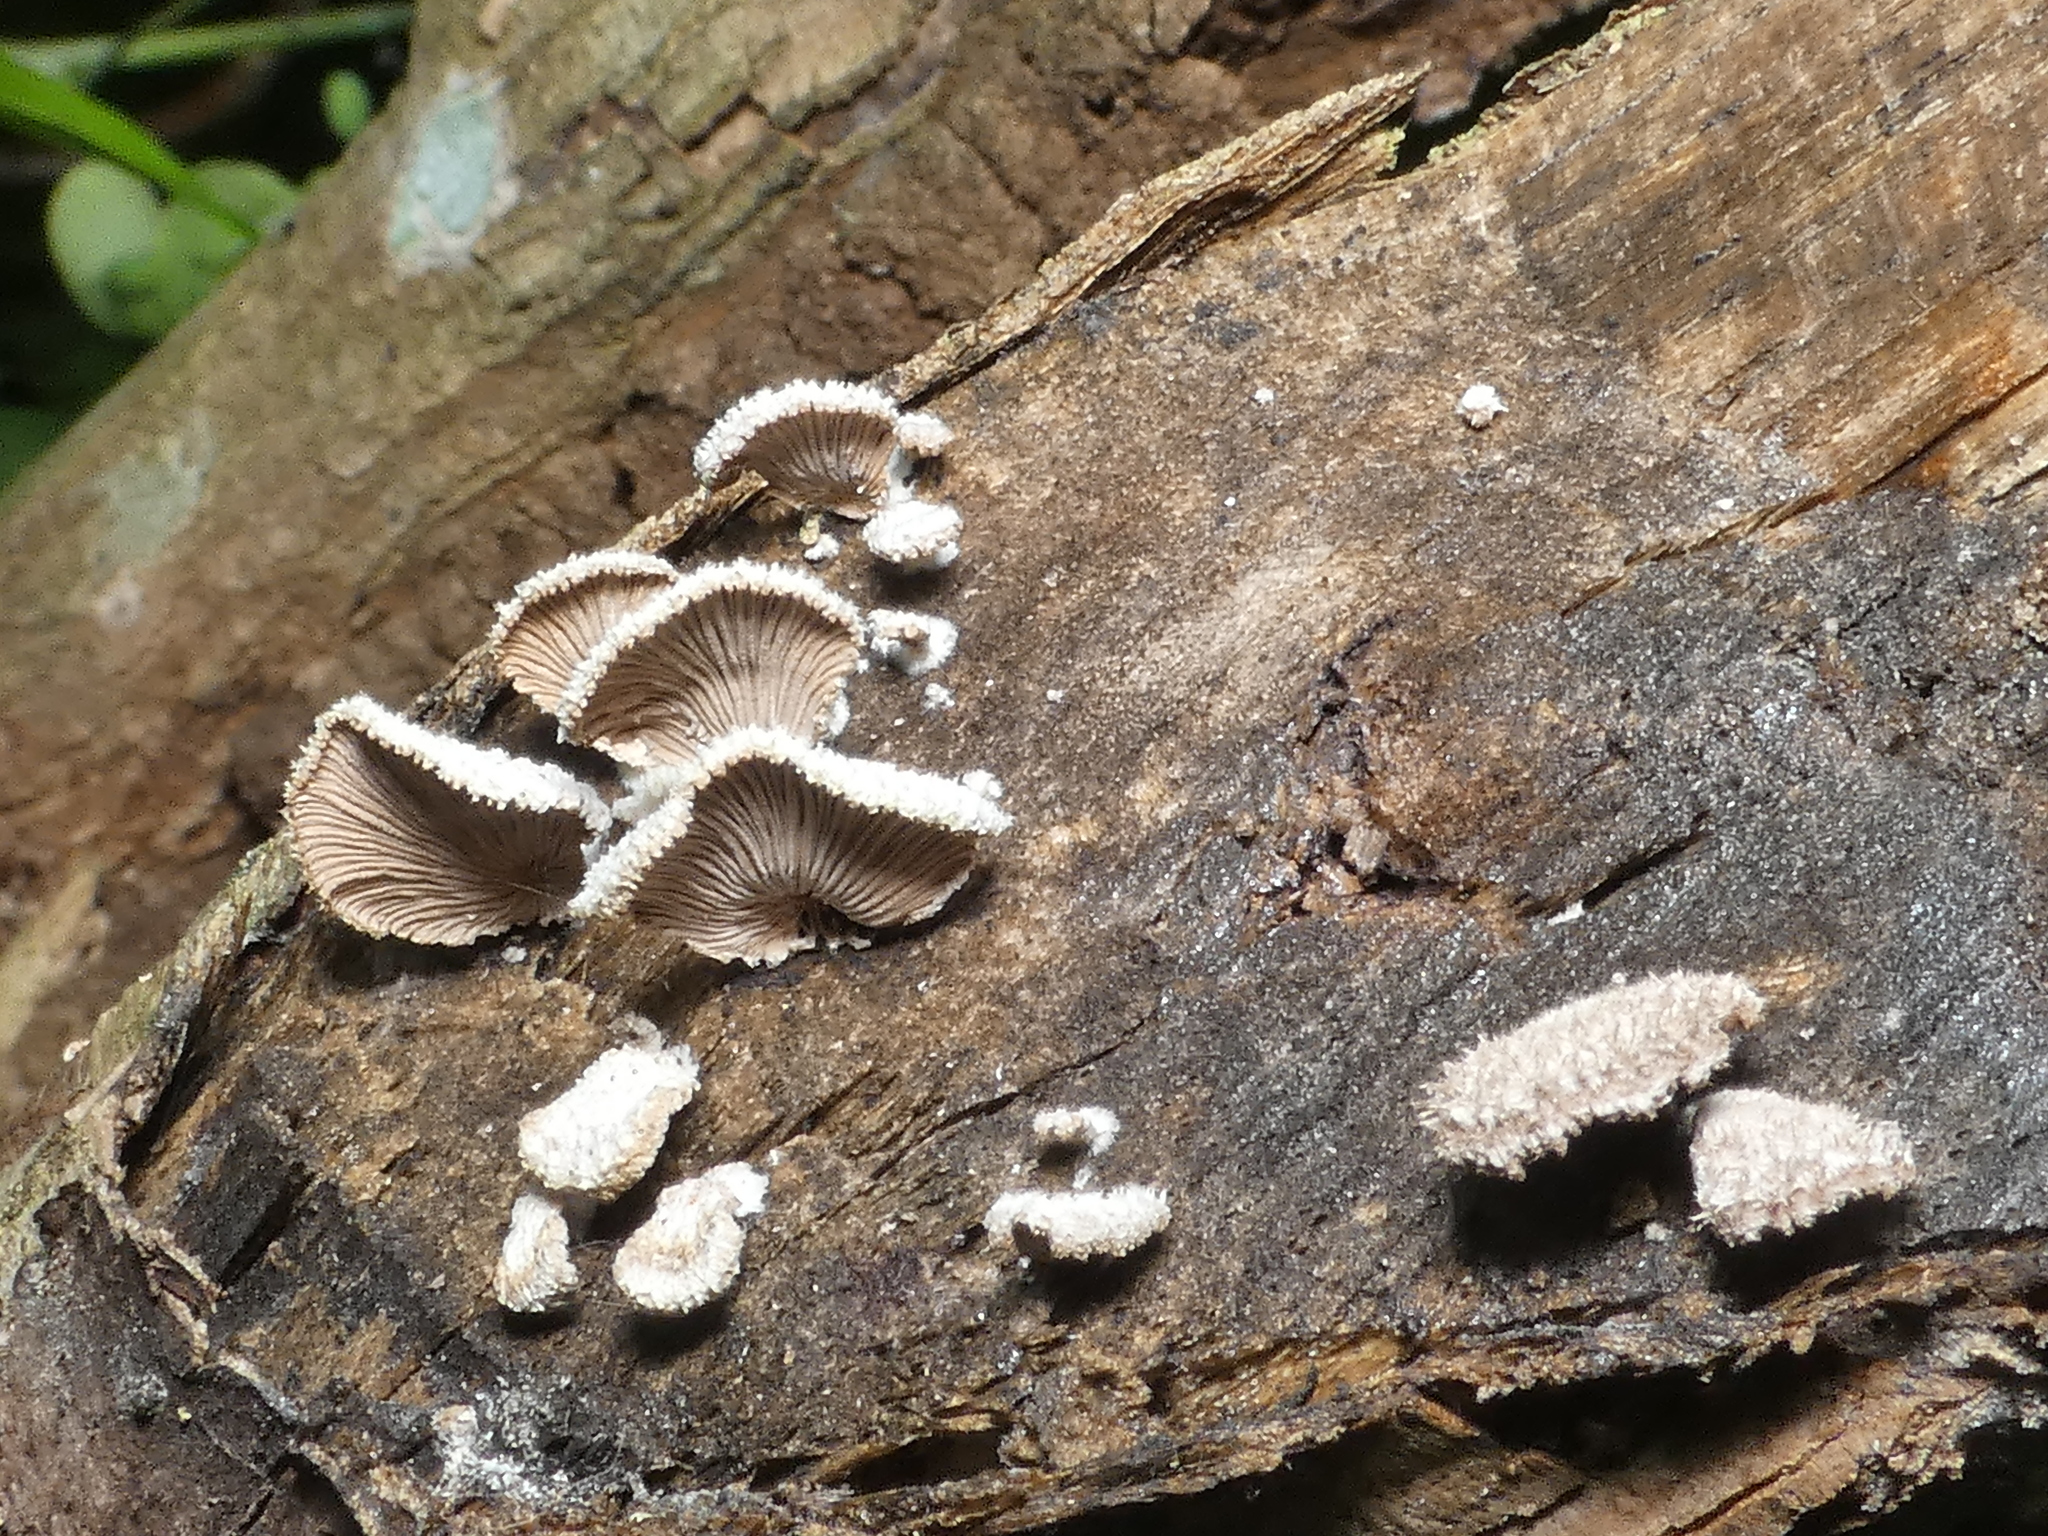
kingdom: Fungi
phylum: Basidiomycota
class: Agaricomycetes
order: Agaricales
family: Schizophyllaceae
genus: Schizophyllum
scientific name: Schizophyllum commune
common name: Common porecrust
